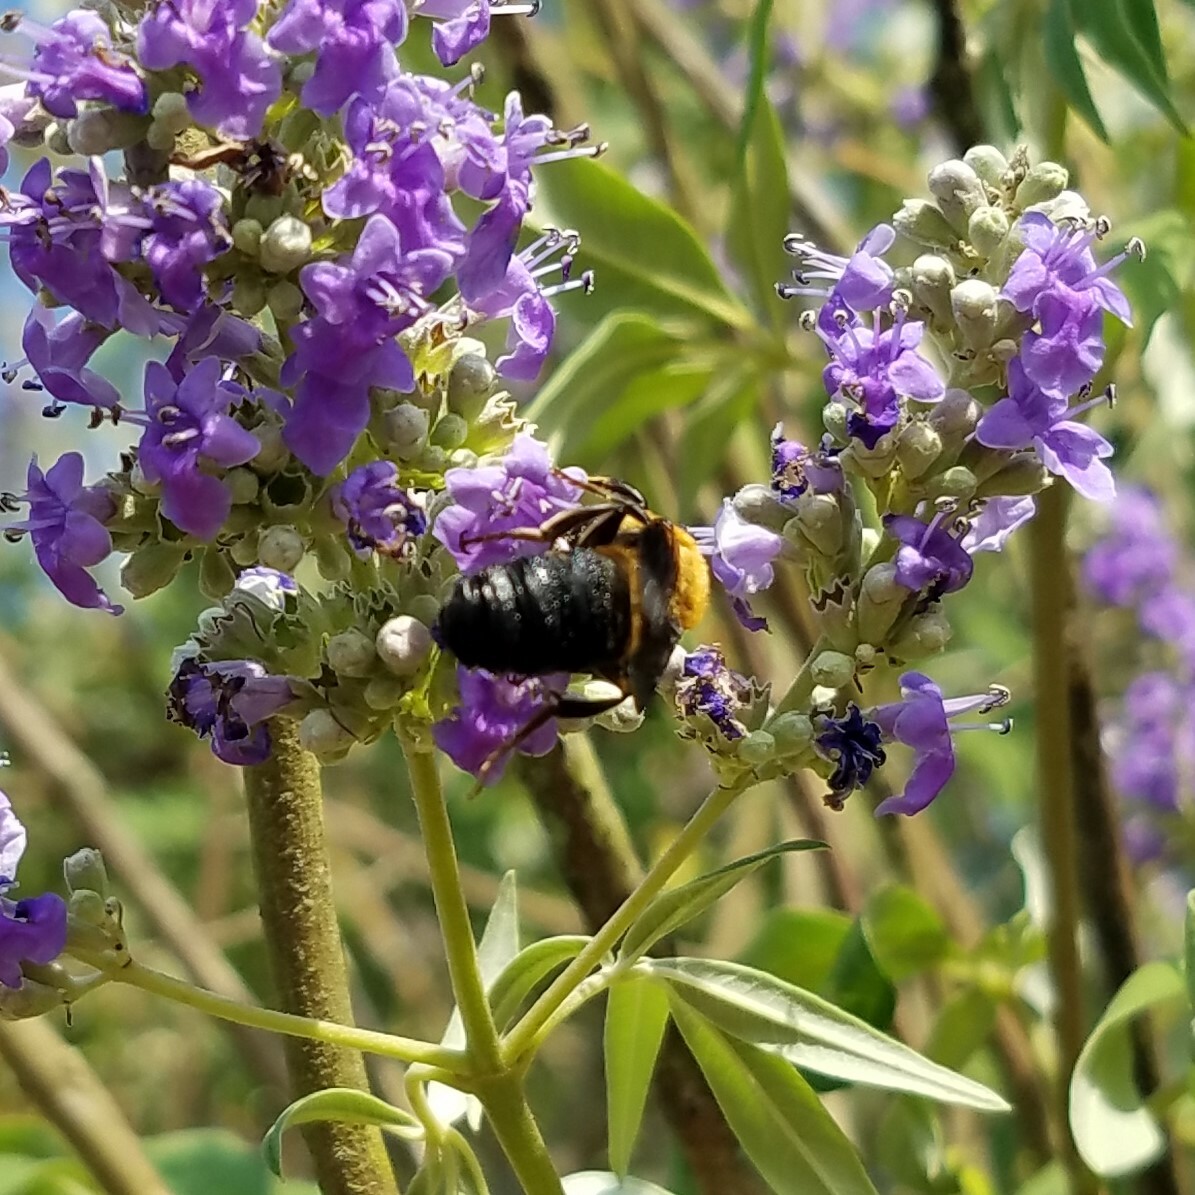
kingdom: Animalia
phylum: Arthropoda
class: Insecta
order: Hymenoptera
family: Megachilidae
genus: Megachile
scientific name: Megachile sculpturalis
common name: Sculptured resin bee
